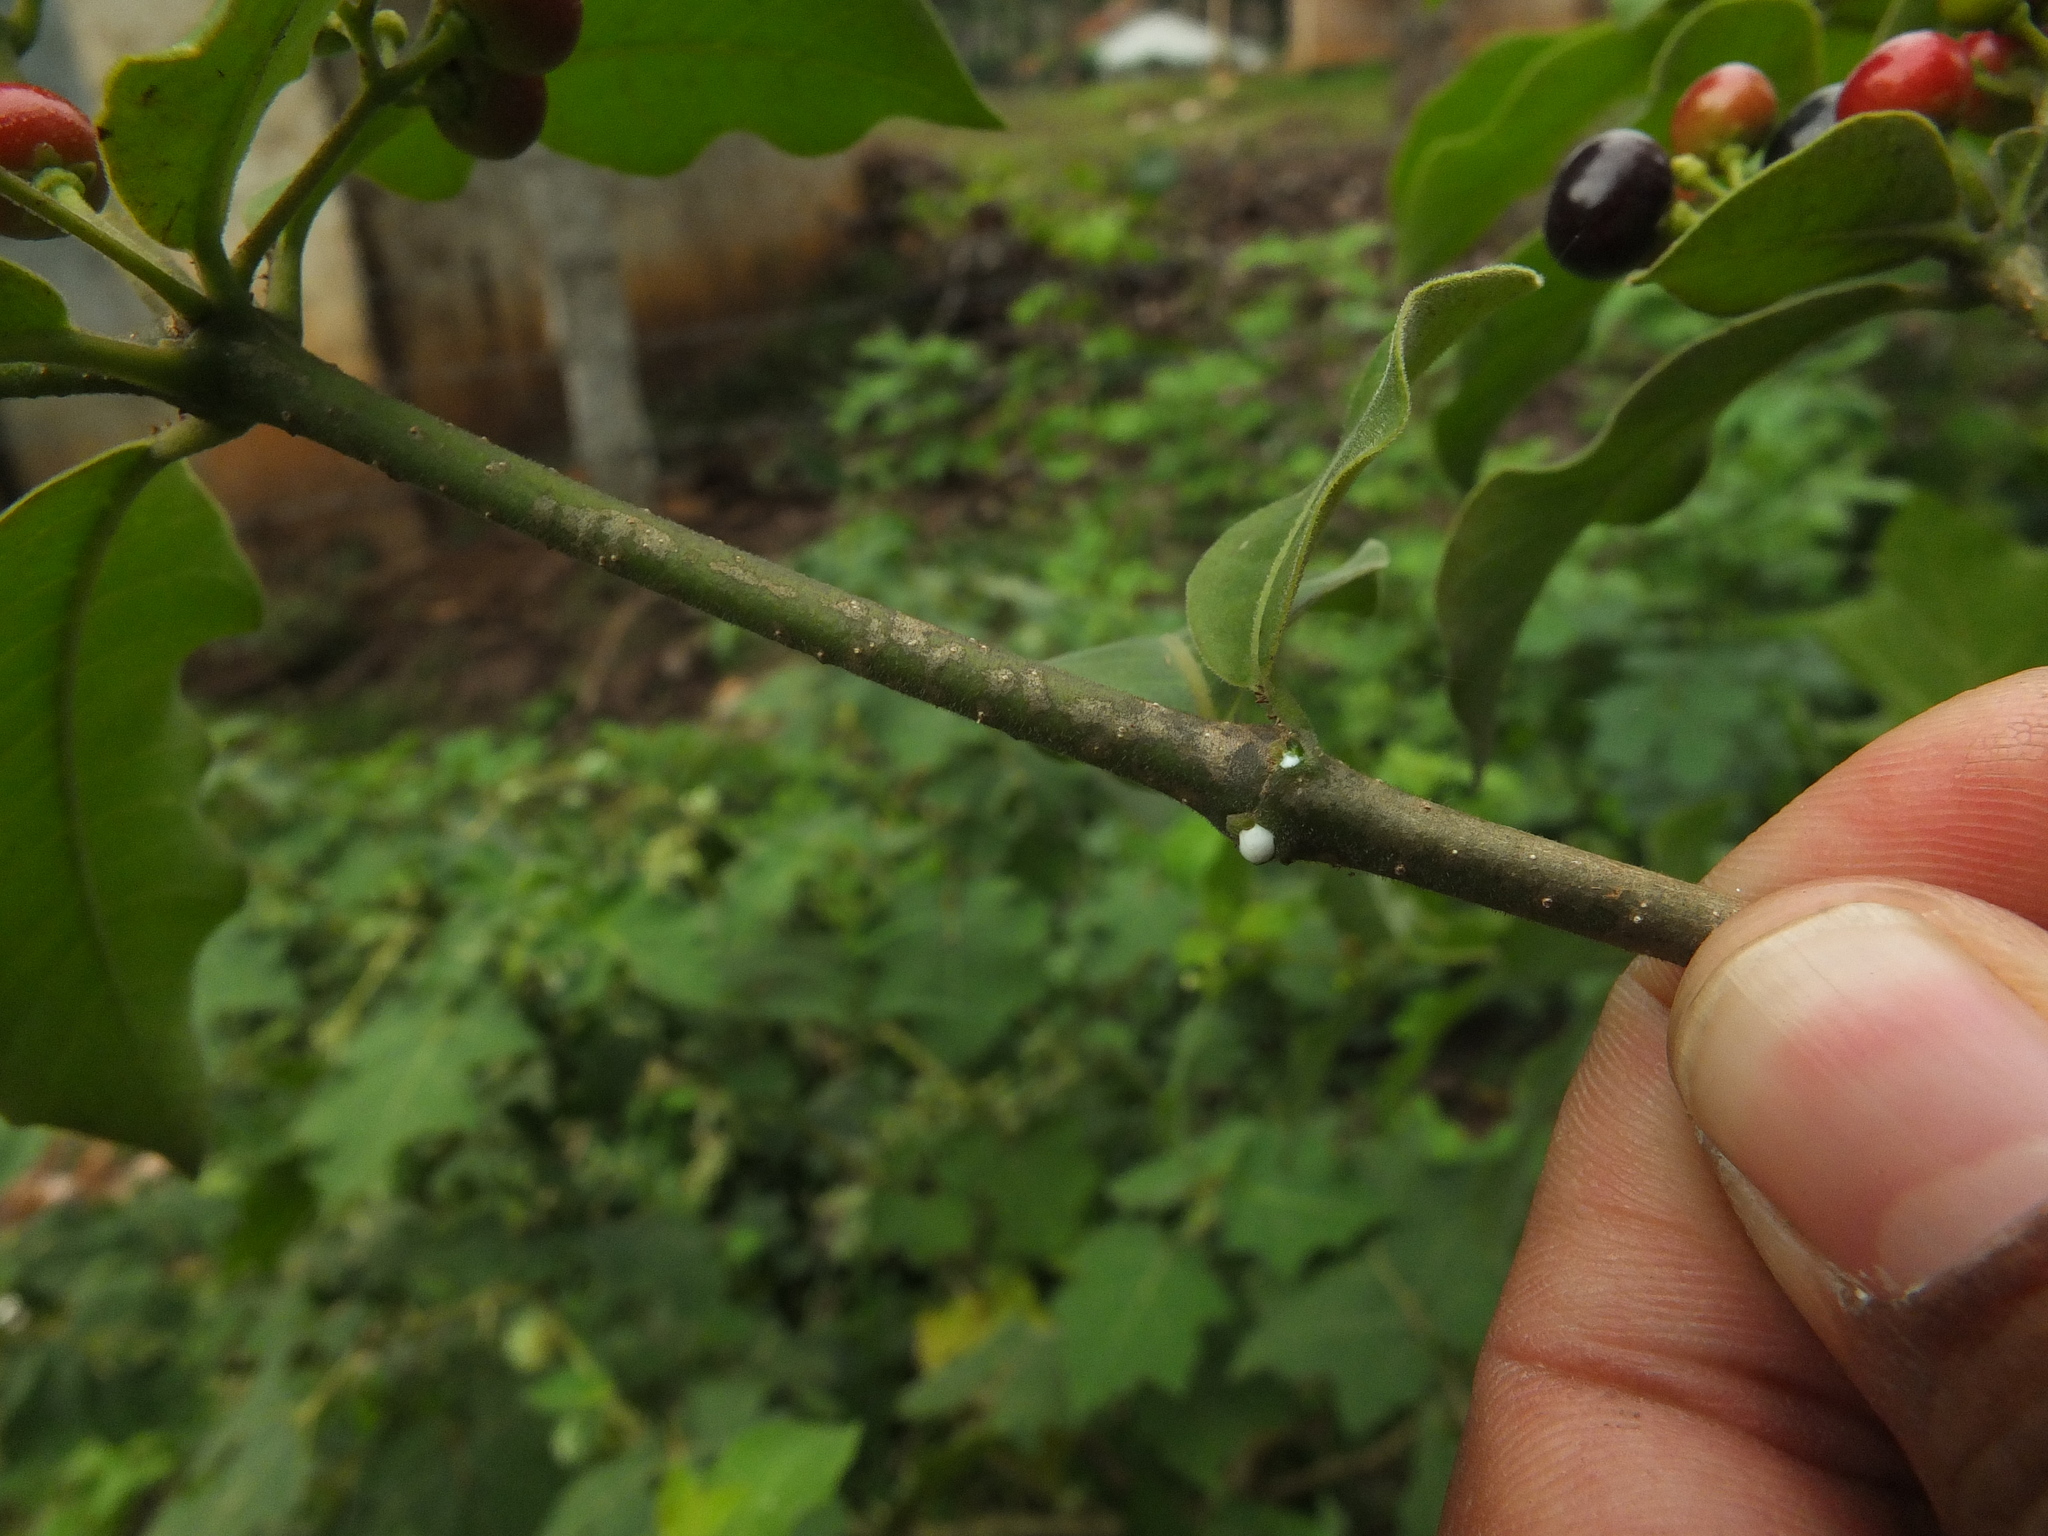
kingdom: Plantae
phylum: Tracheophyta
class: Magnoliopsida
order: Gentianales
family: Apocynaceae
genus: Rauvolfia
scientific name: Rauvolfia tetraphylla
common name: Four-leaf devil-pepper
